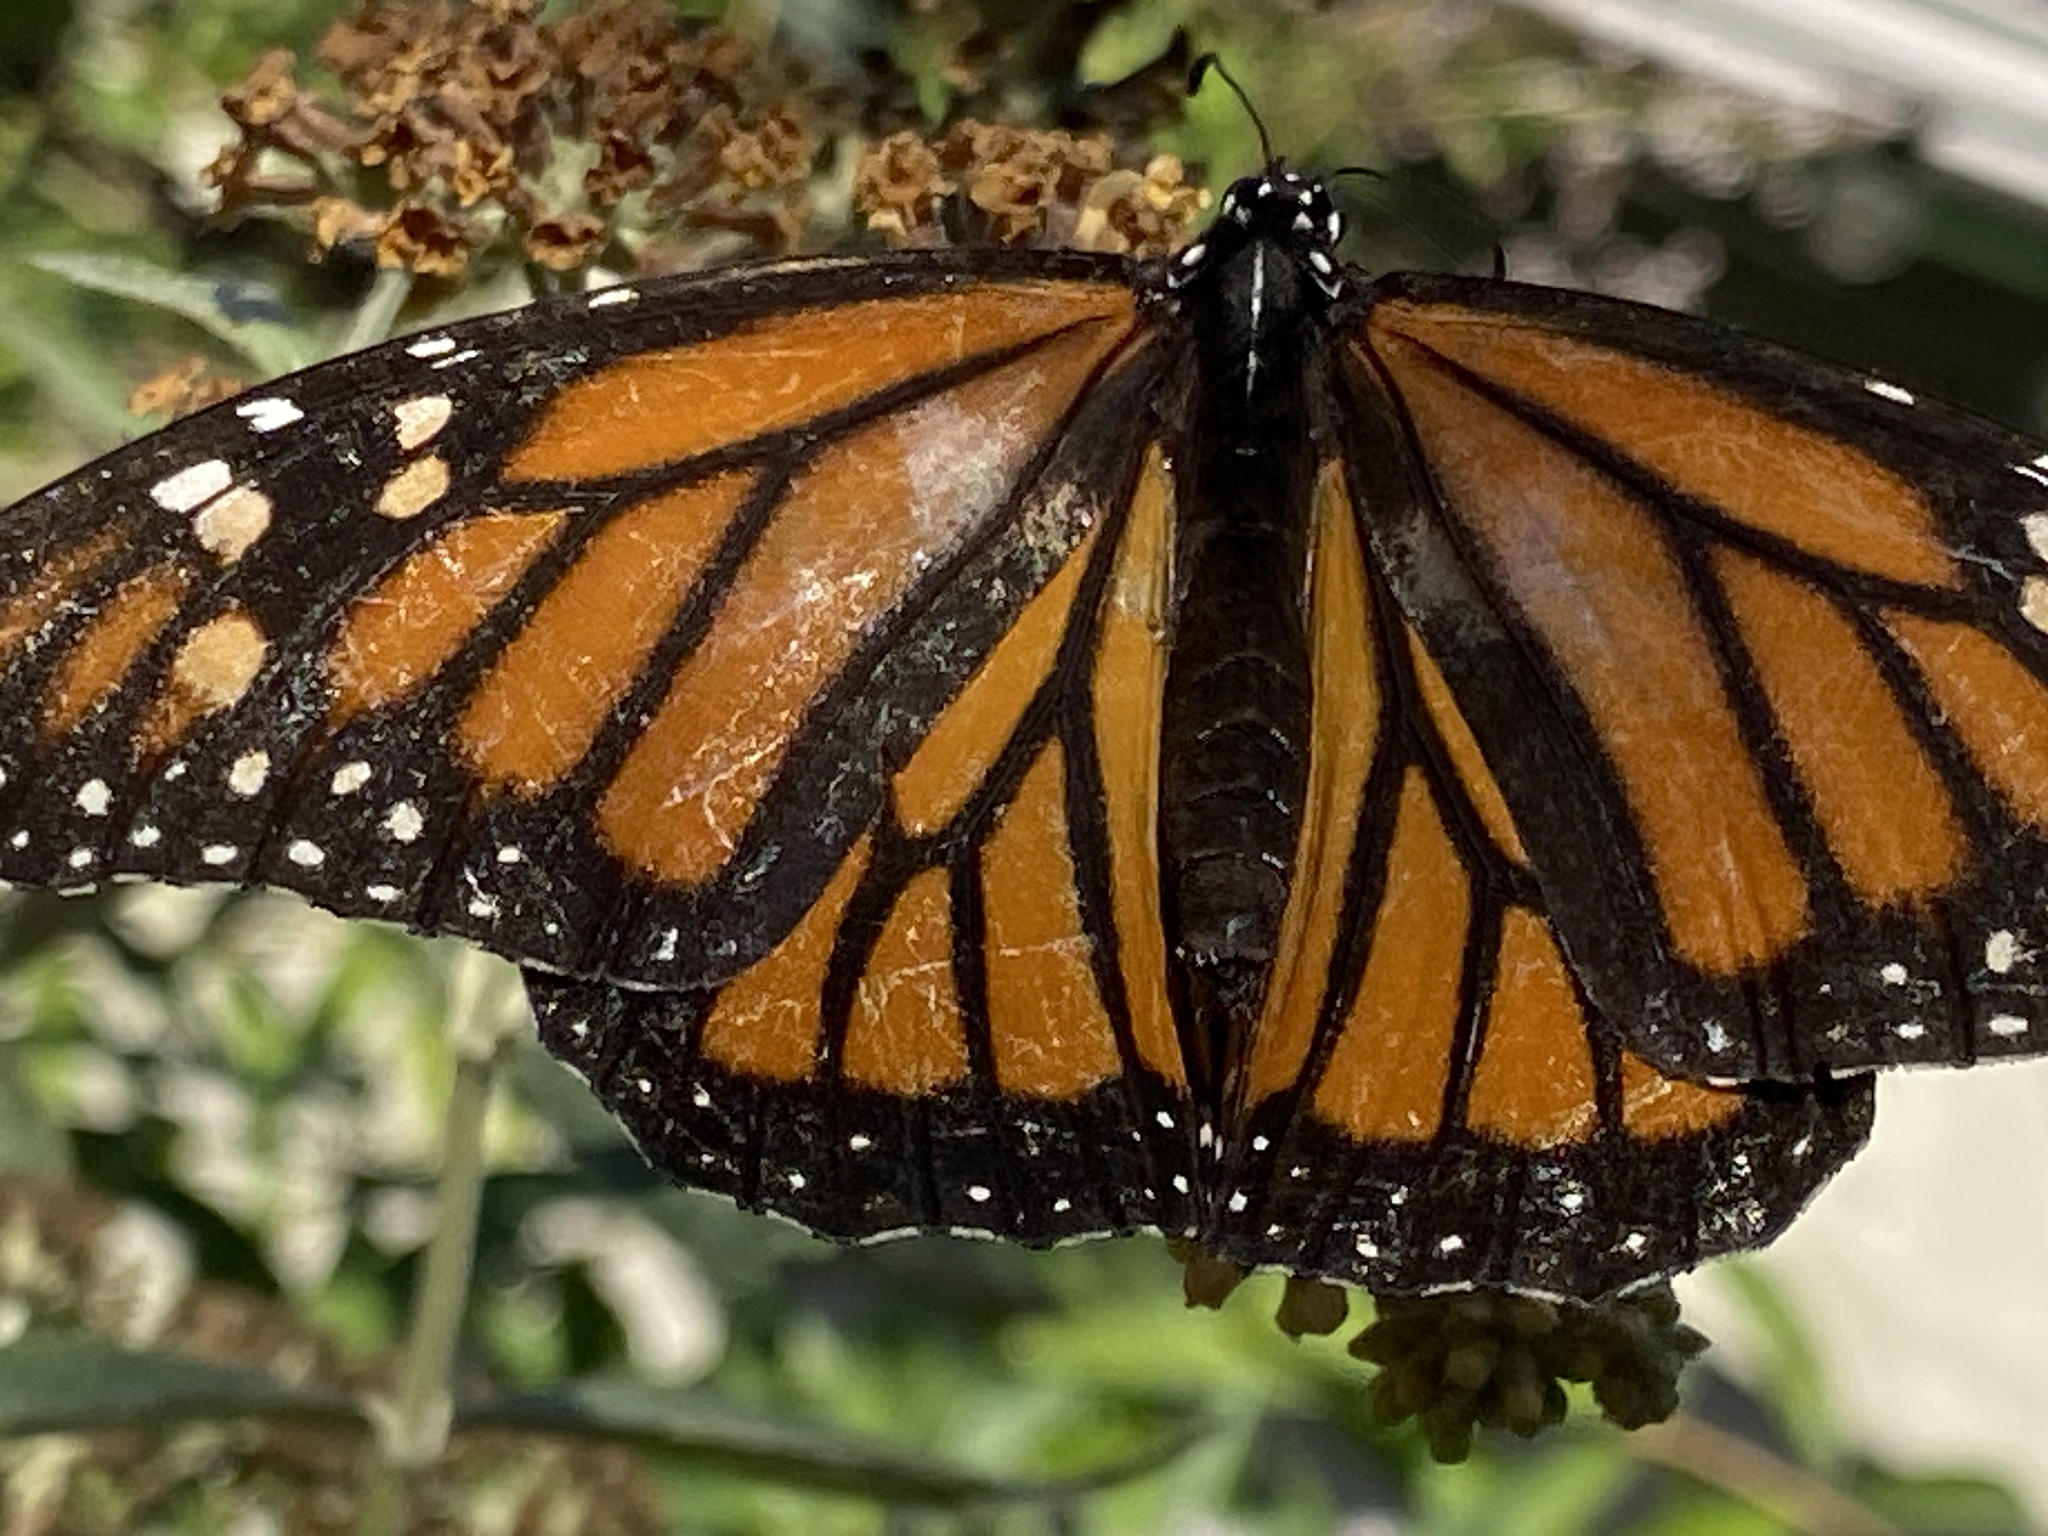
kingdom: Animalia
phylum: Arthropoda
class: Insecta
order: Lepidoptera
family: Nymphalidae
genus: Danaus
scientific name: Danaus plexippus
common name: Monarch
